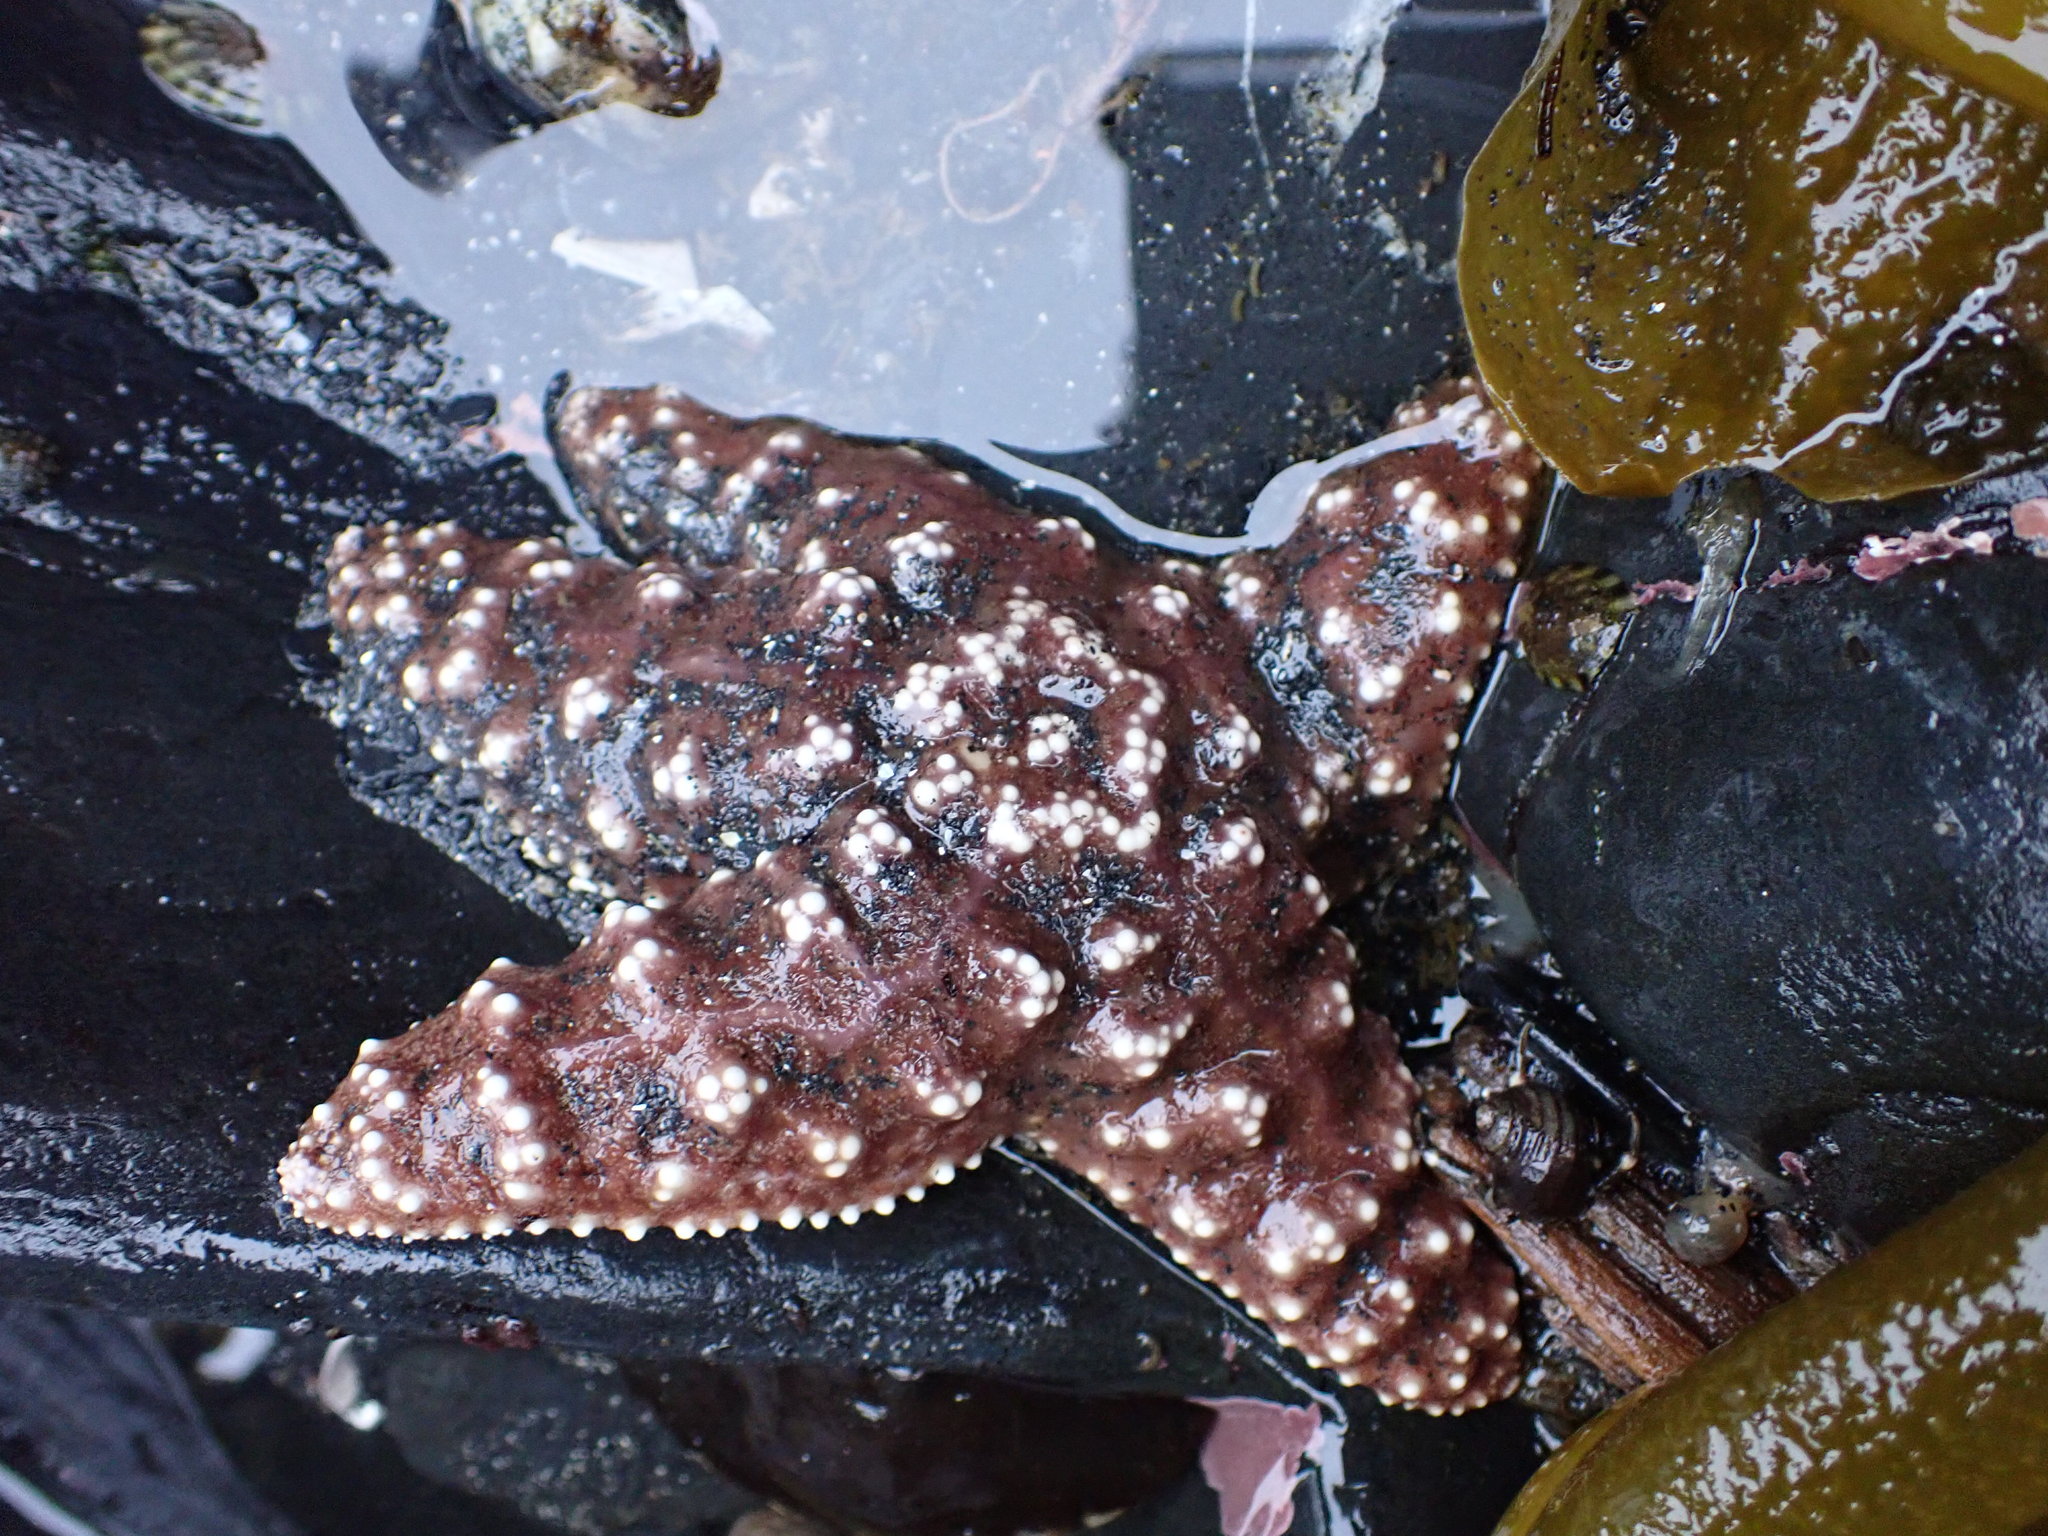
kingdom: Animalia
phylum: Echinodermata
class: Asteroidea
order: Forcipulatida
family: Asteriidae
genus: Pisaster
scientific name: Pisaster ochraceus
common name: Ochre stars
